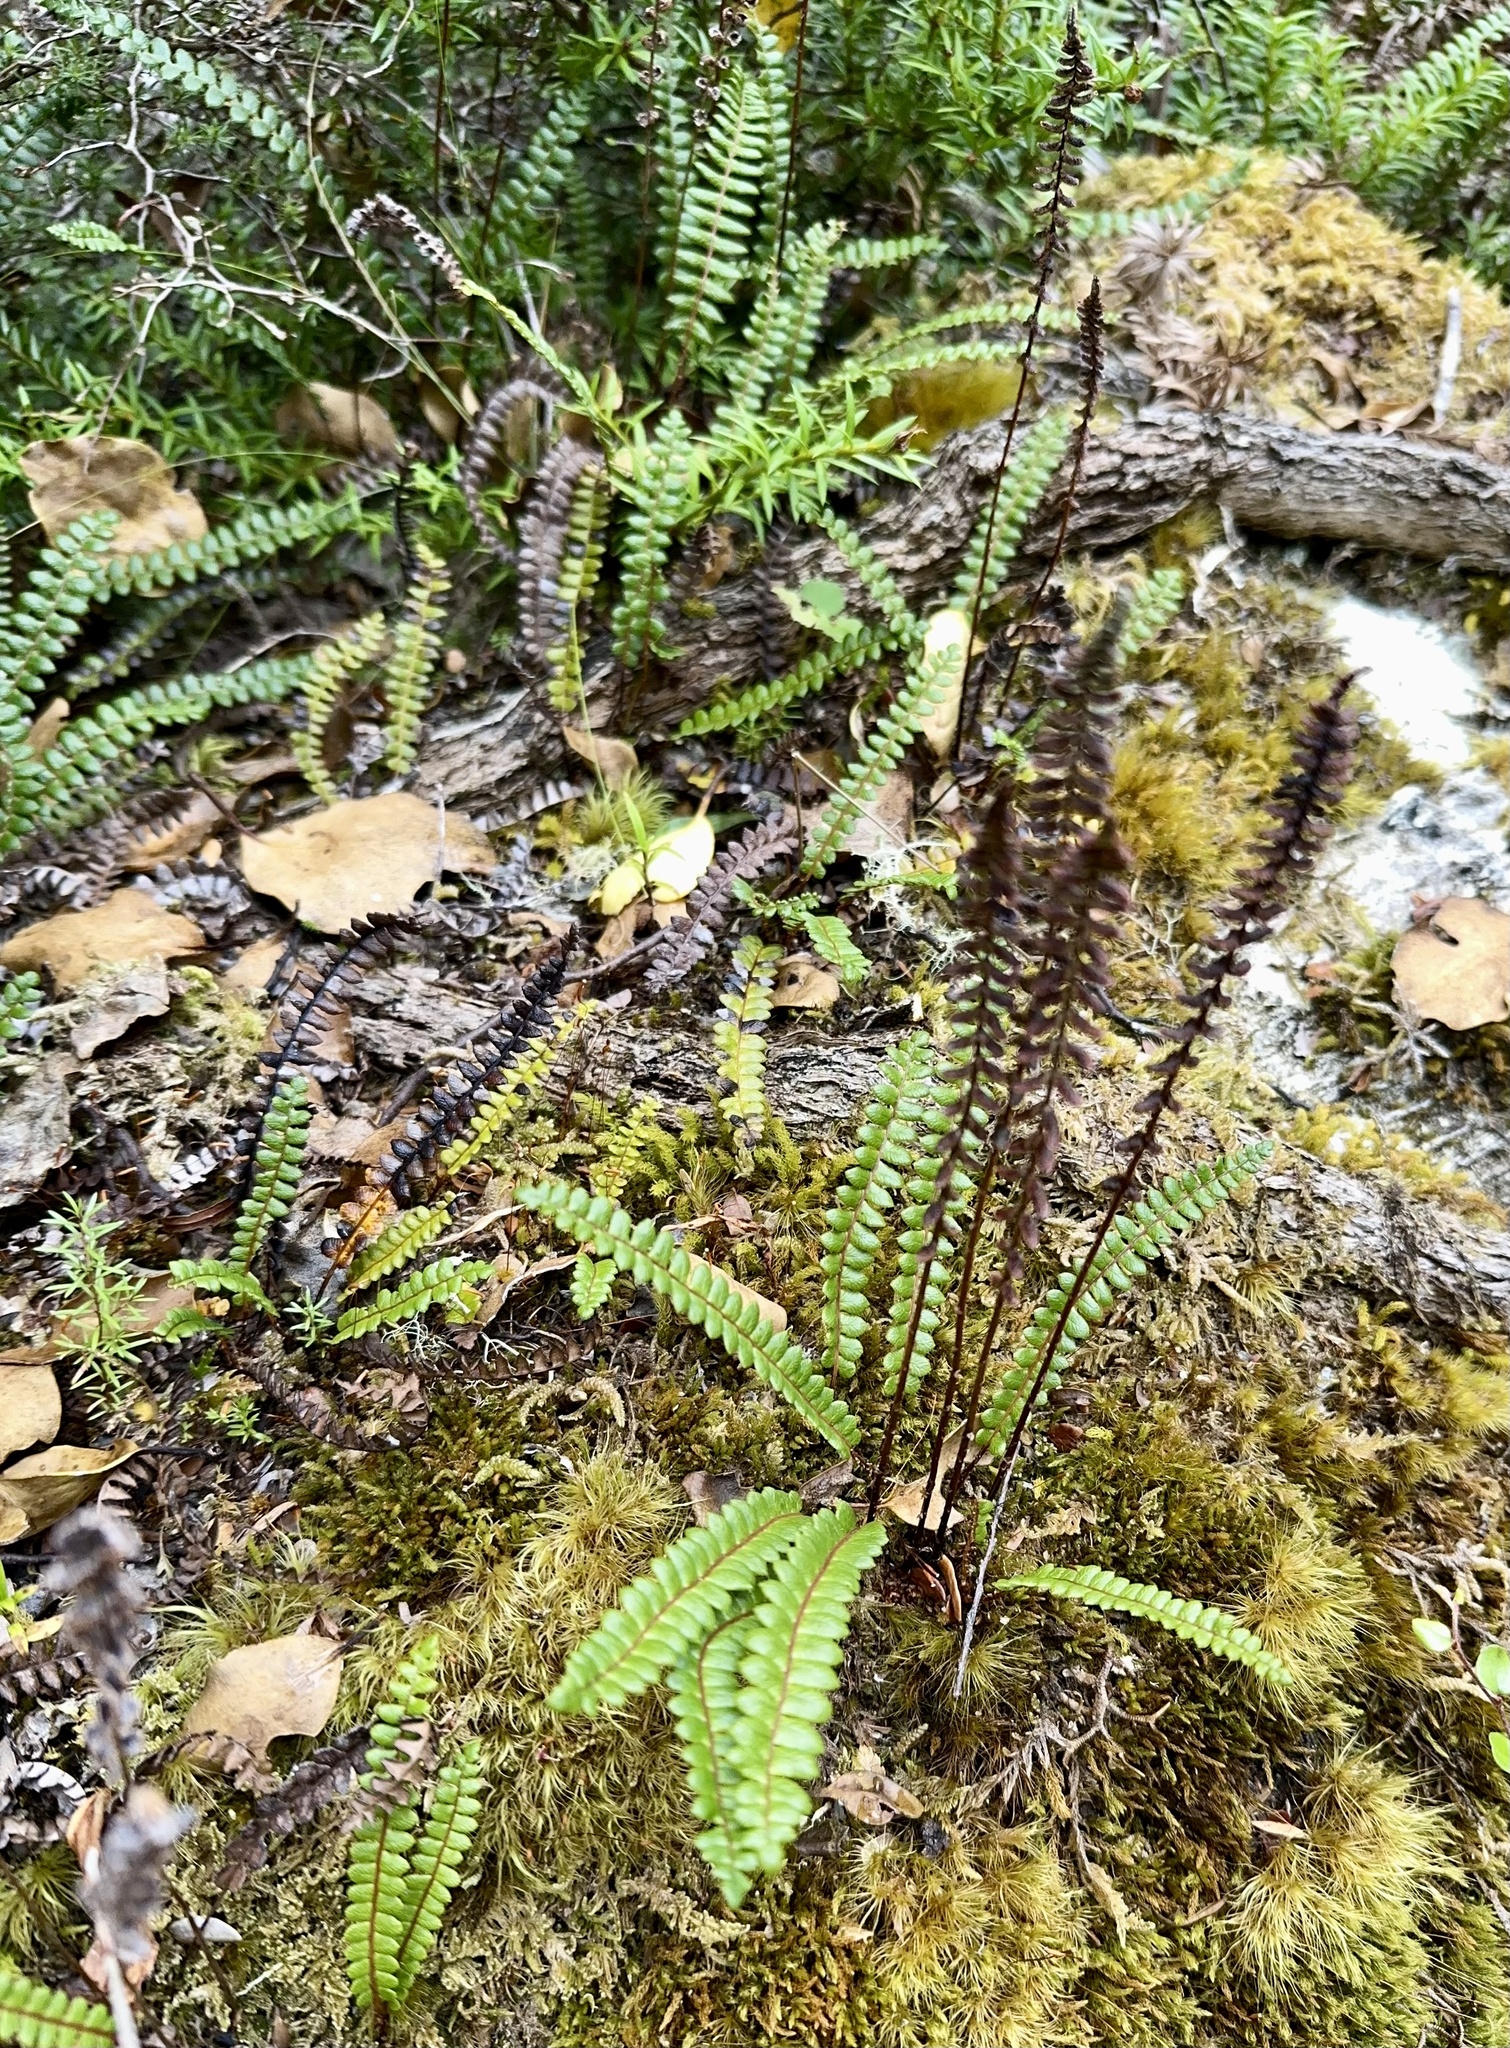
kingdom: Plantae
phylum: Tracheophyta
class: Polypodiopsida
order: Polypodiales
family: Blechnaceae
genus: Austroblechnum
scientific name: Austroblechnum penna-marina
